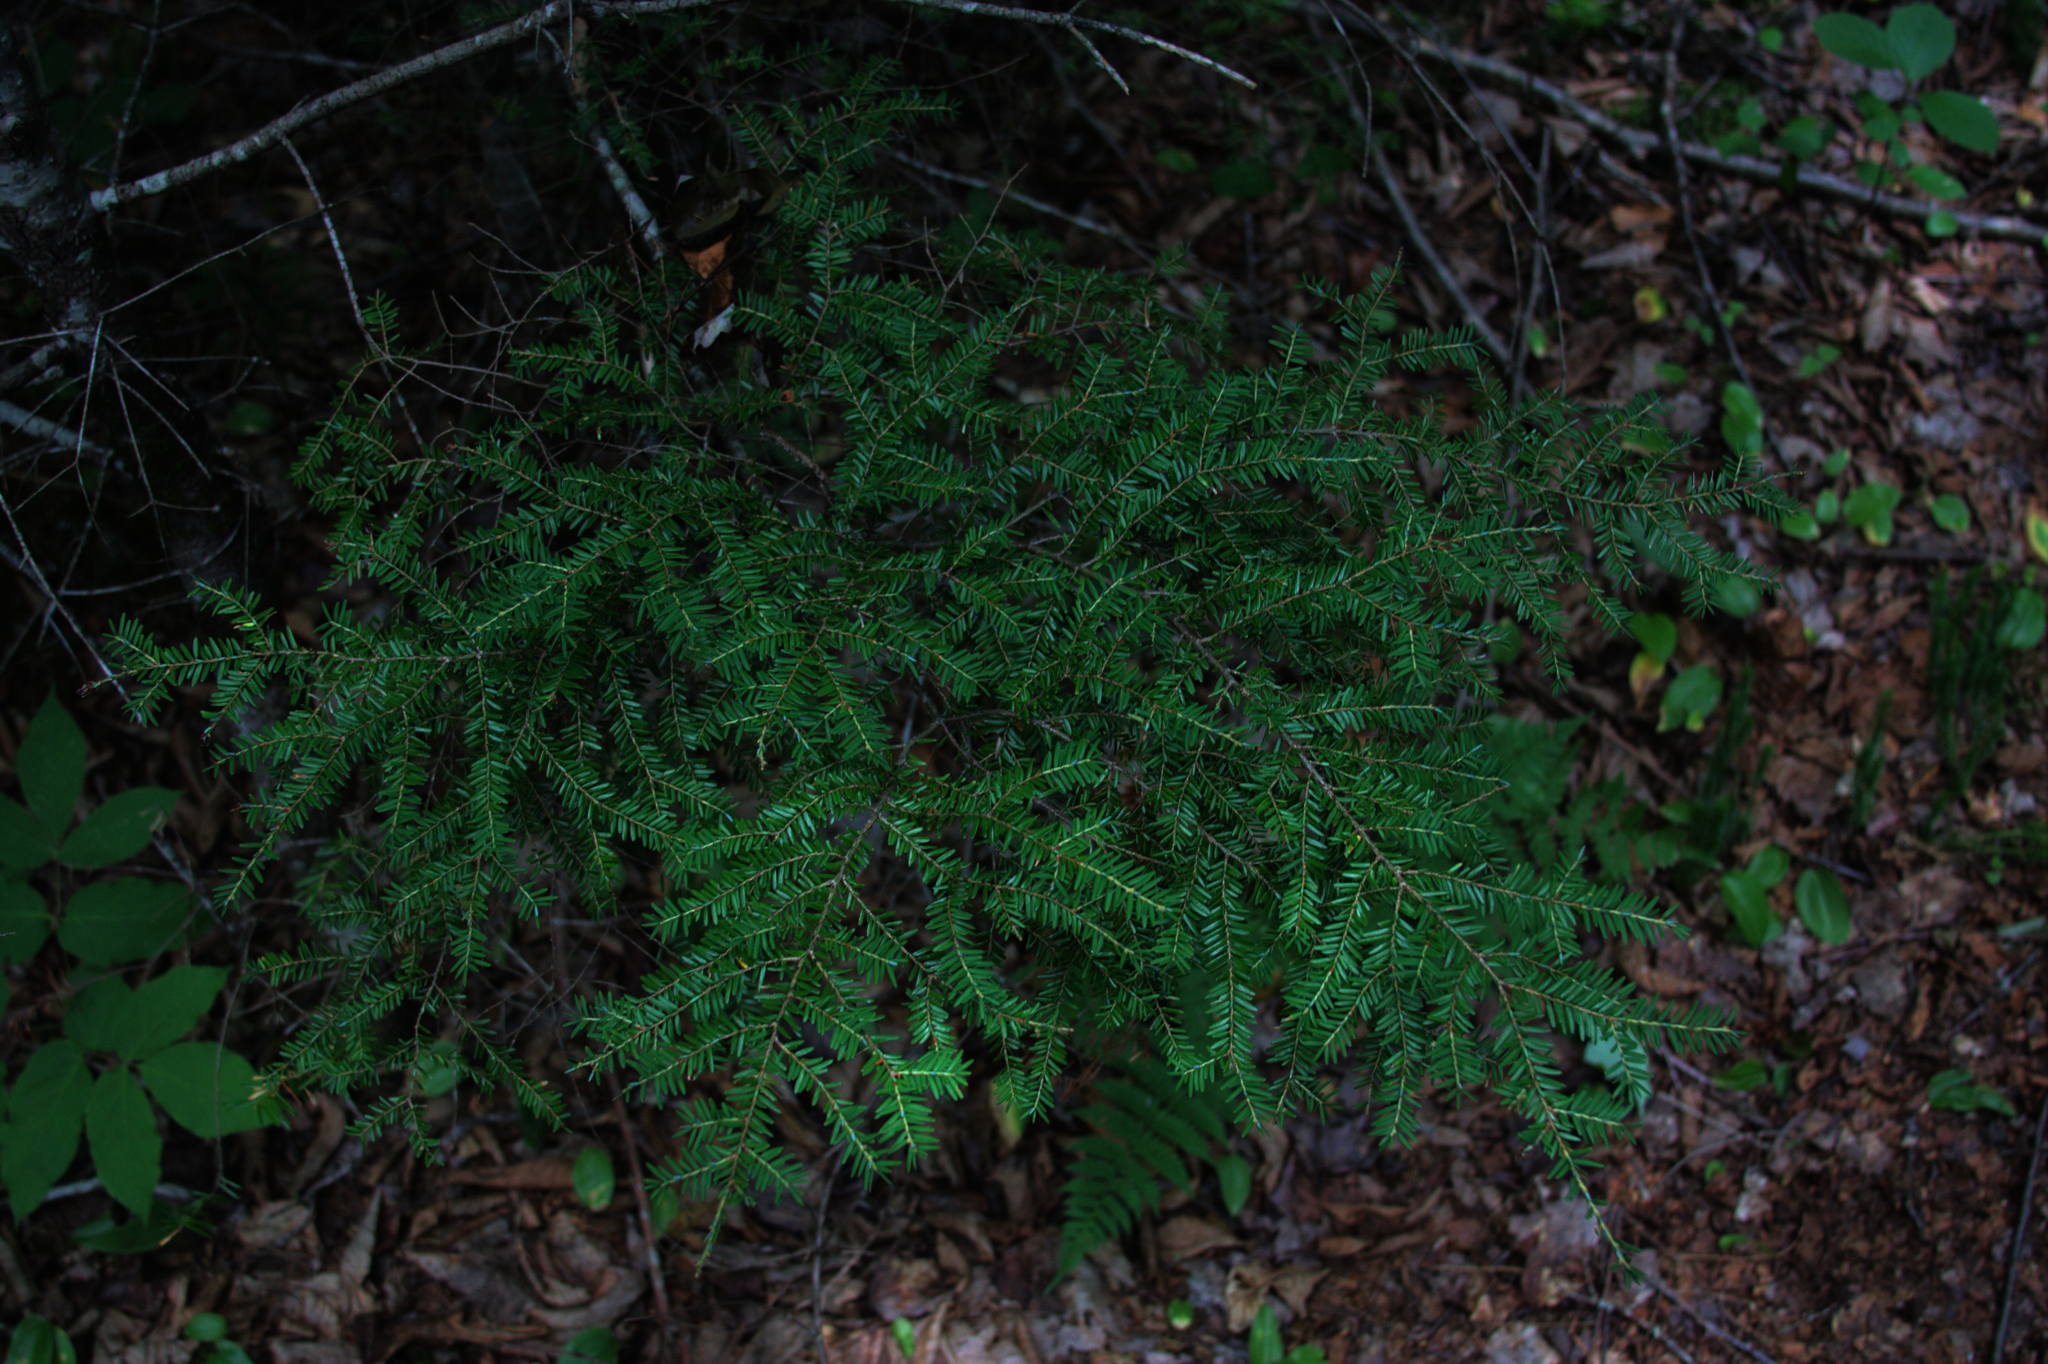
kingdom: Plantae
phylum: Tracheophyta
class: Pinopsida
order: Pinales
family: Pinaceae
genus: Tsuga
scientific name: Tsuga canadensis
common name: Eastern hemlock
